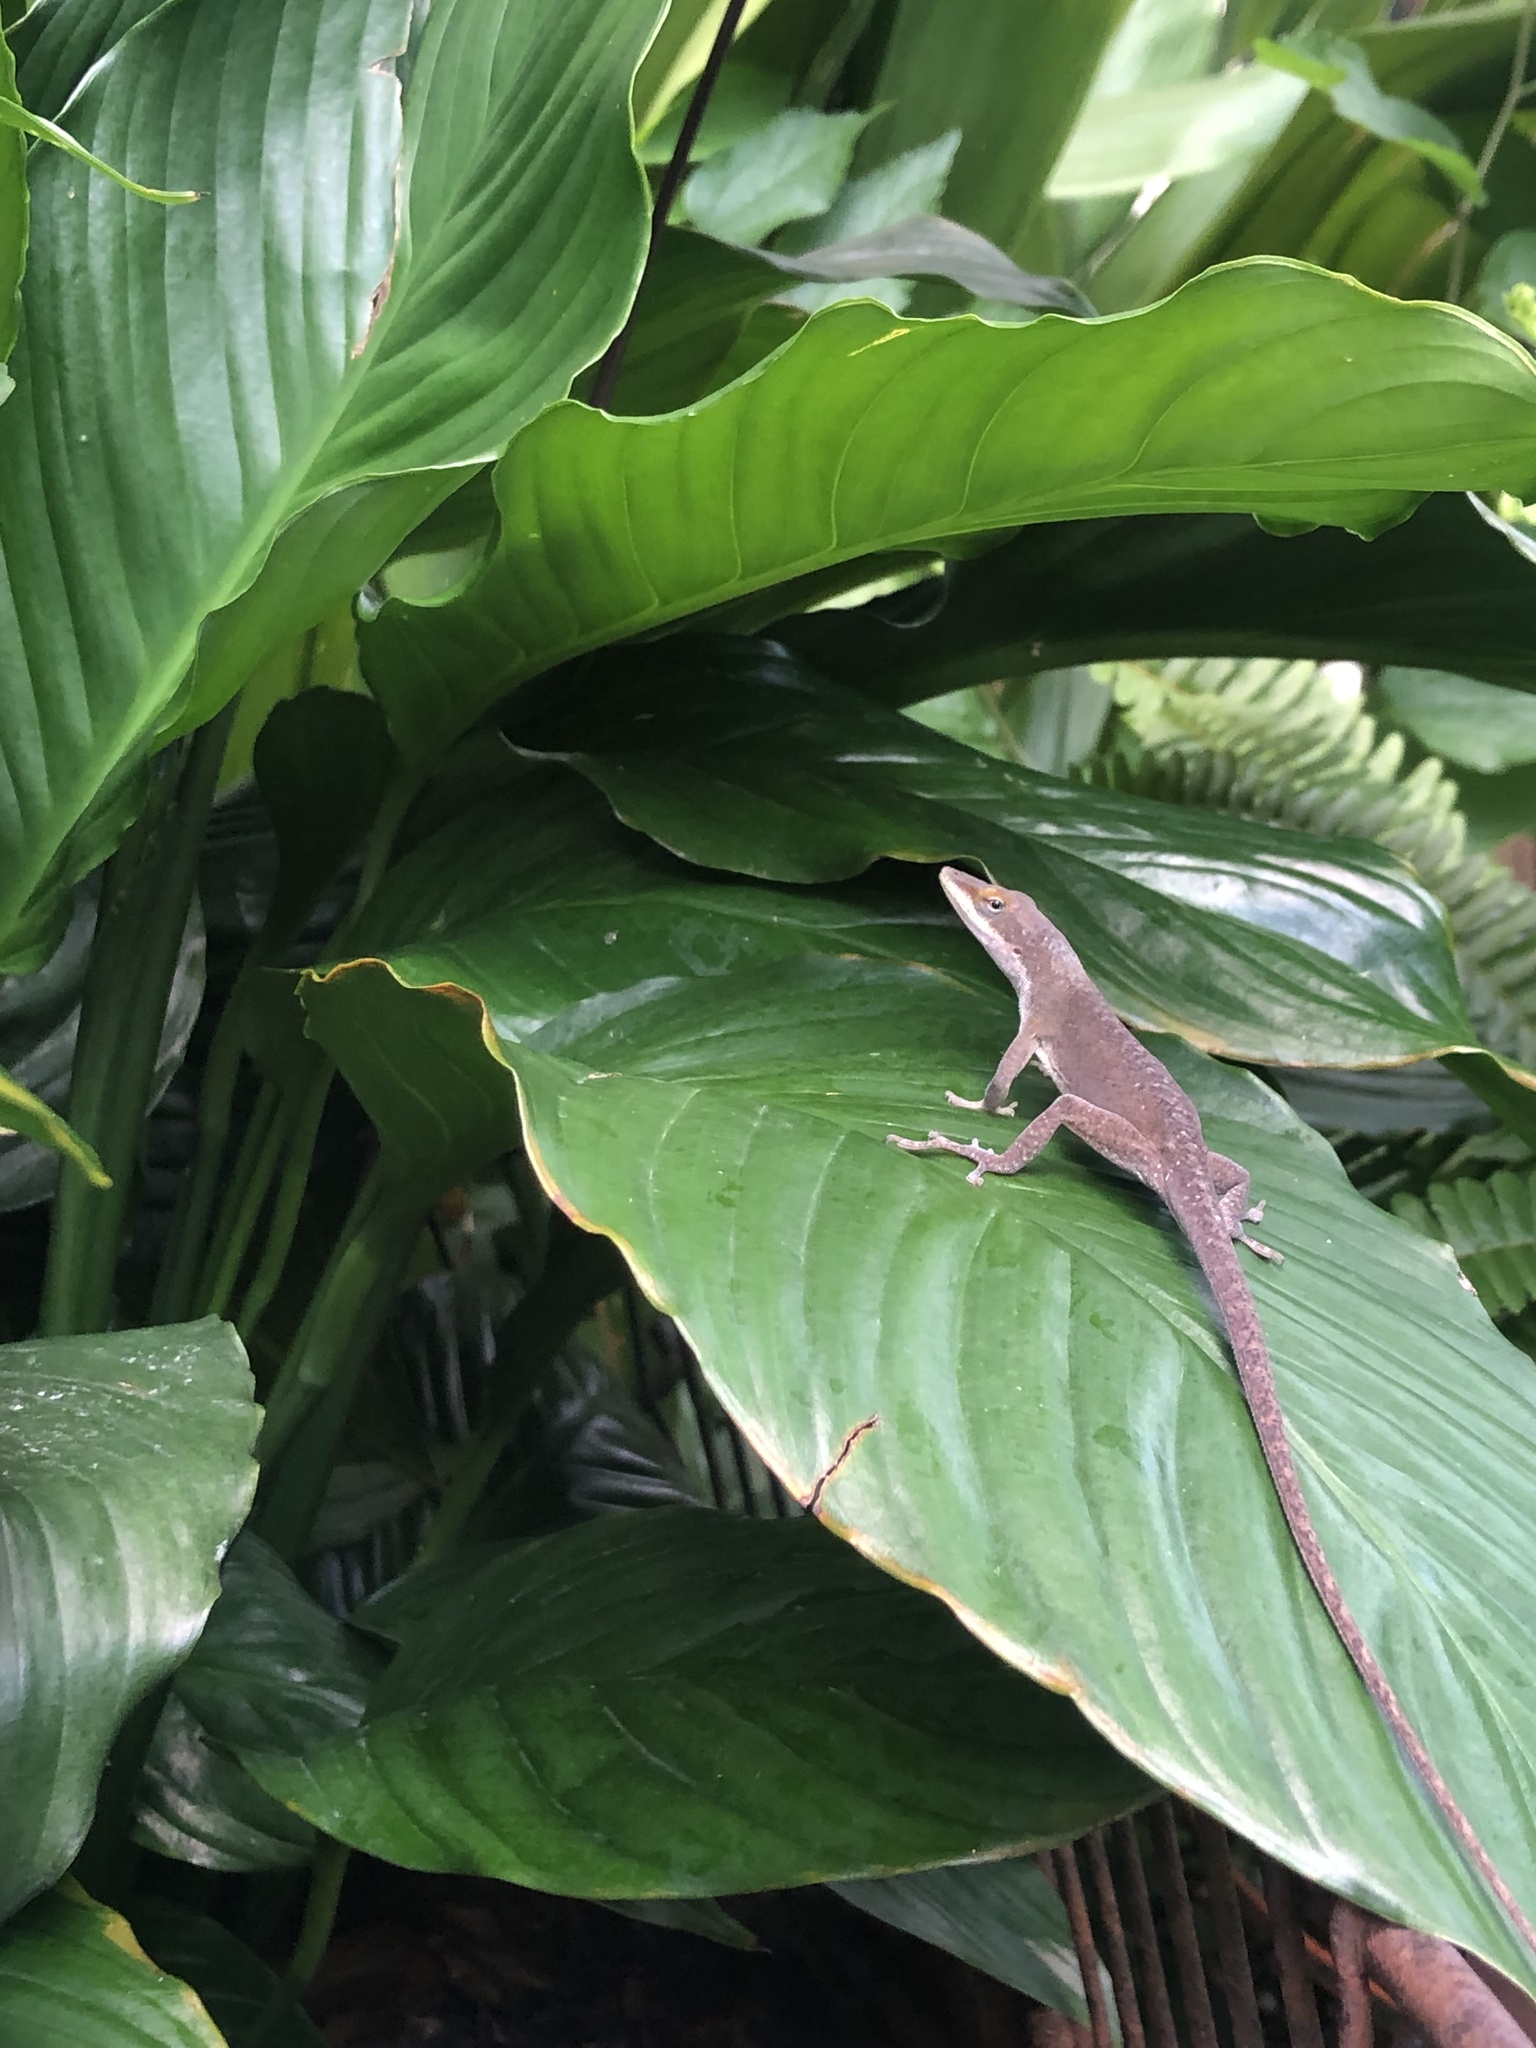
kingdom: Animalia
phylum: Chordata
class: Squamata
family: Dactyloidae
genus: Anolis
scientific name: Anolis carolinensis
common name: Green anole
